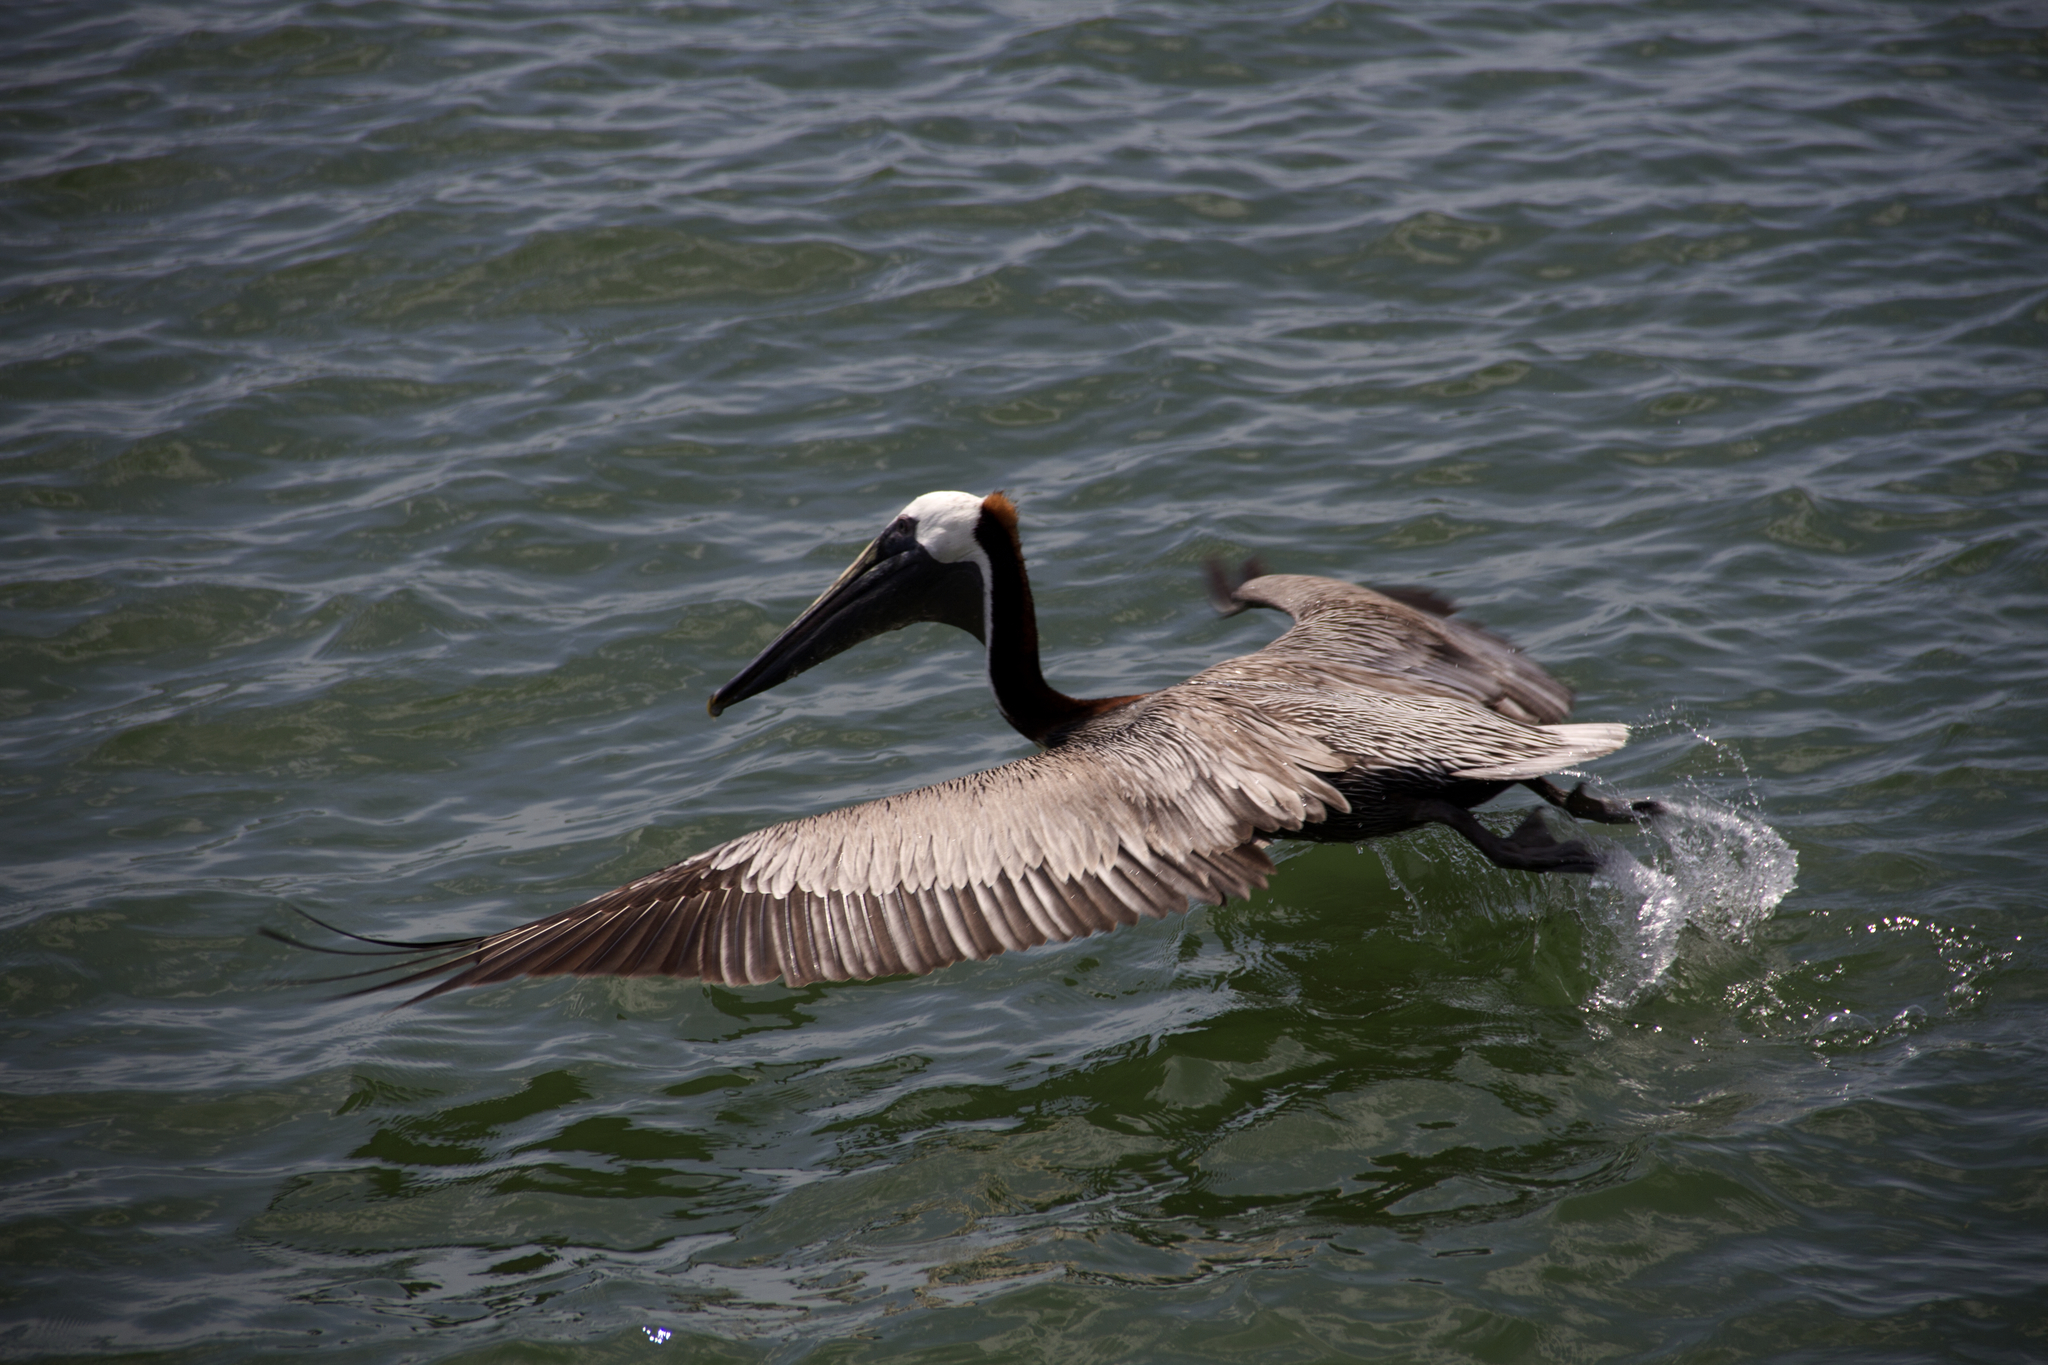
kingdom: Animalia
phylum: Chordata
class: Aves
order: Pelecaniformes
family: Pelecanidae
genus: Pelecanus
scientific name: Pelecanus occidentalis
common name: Brown pelican
